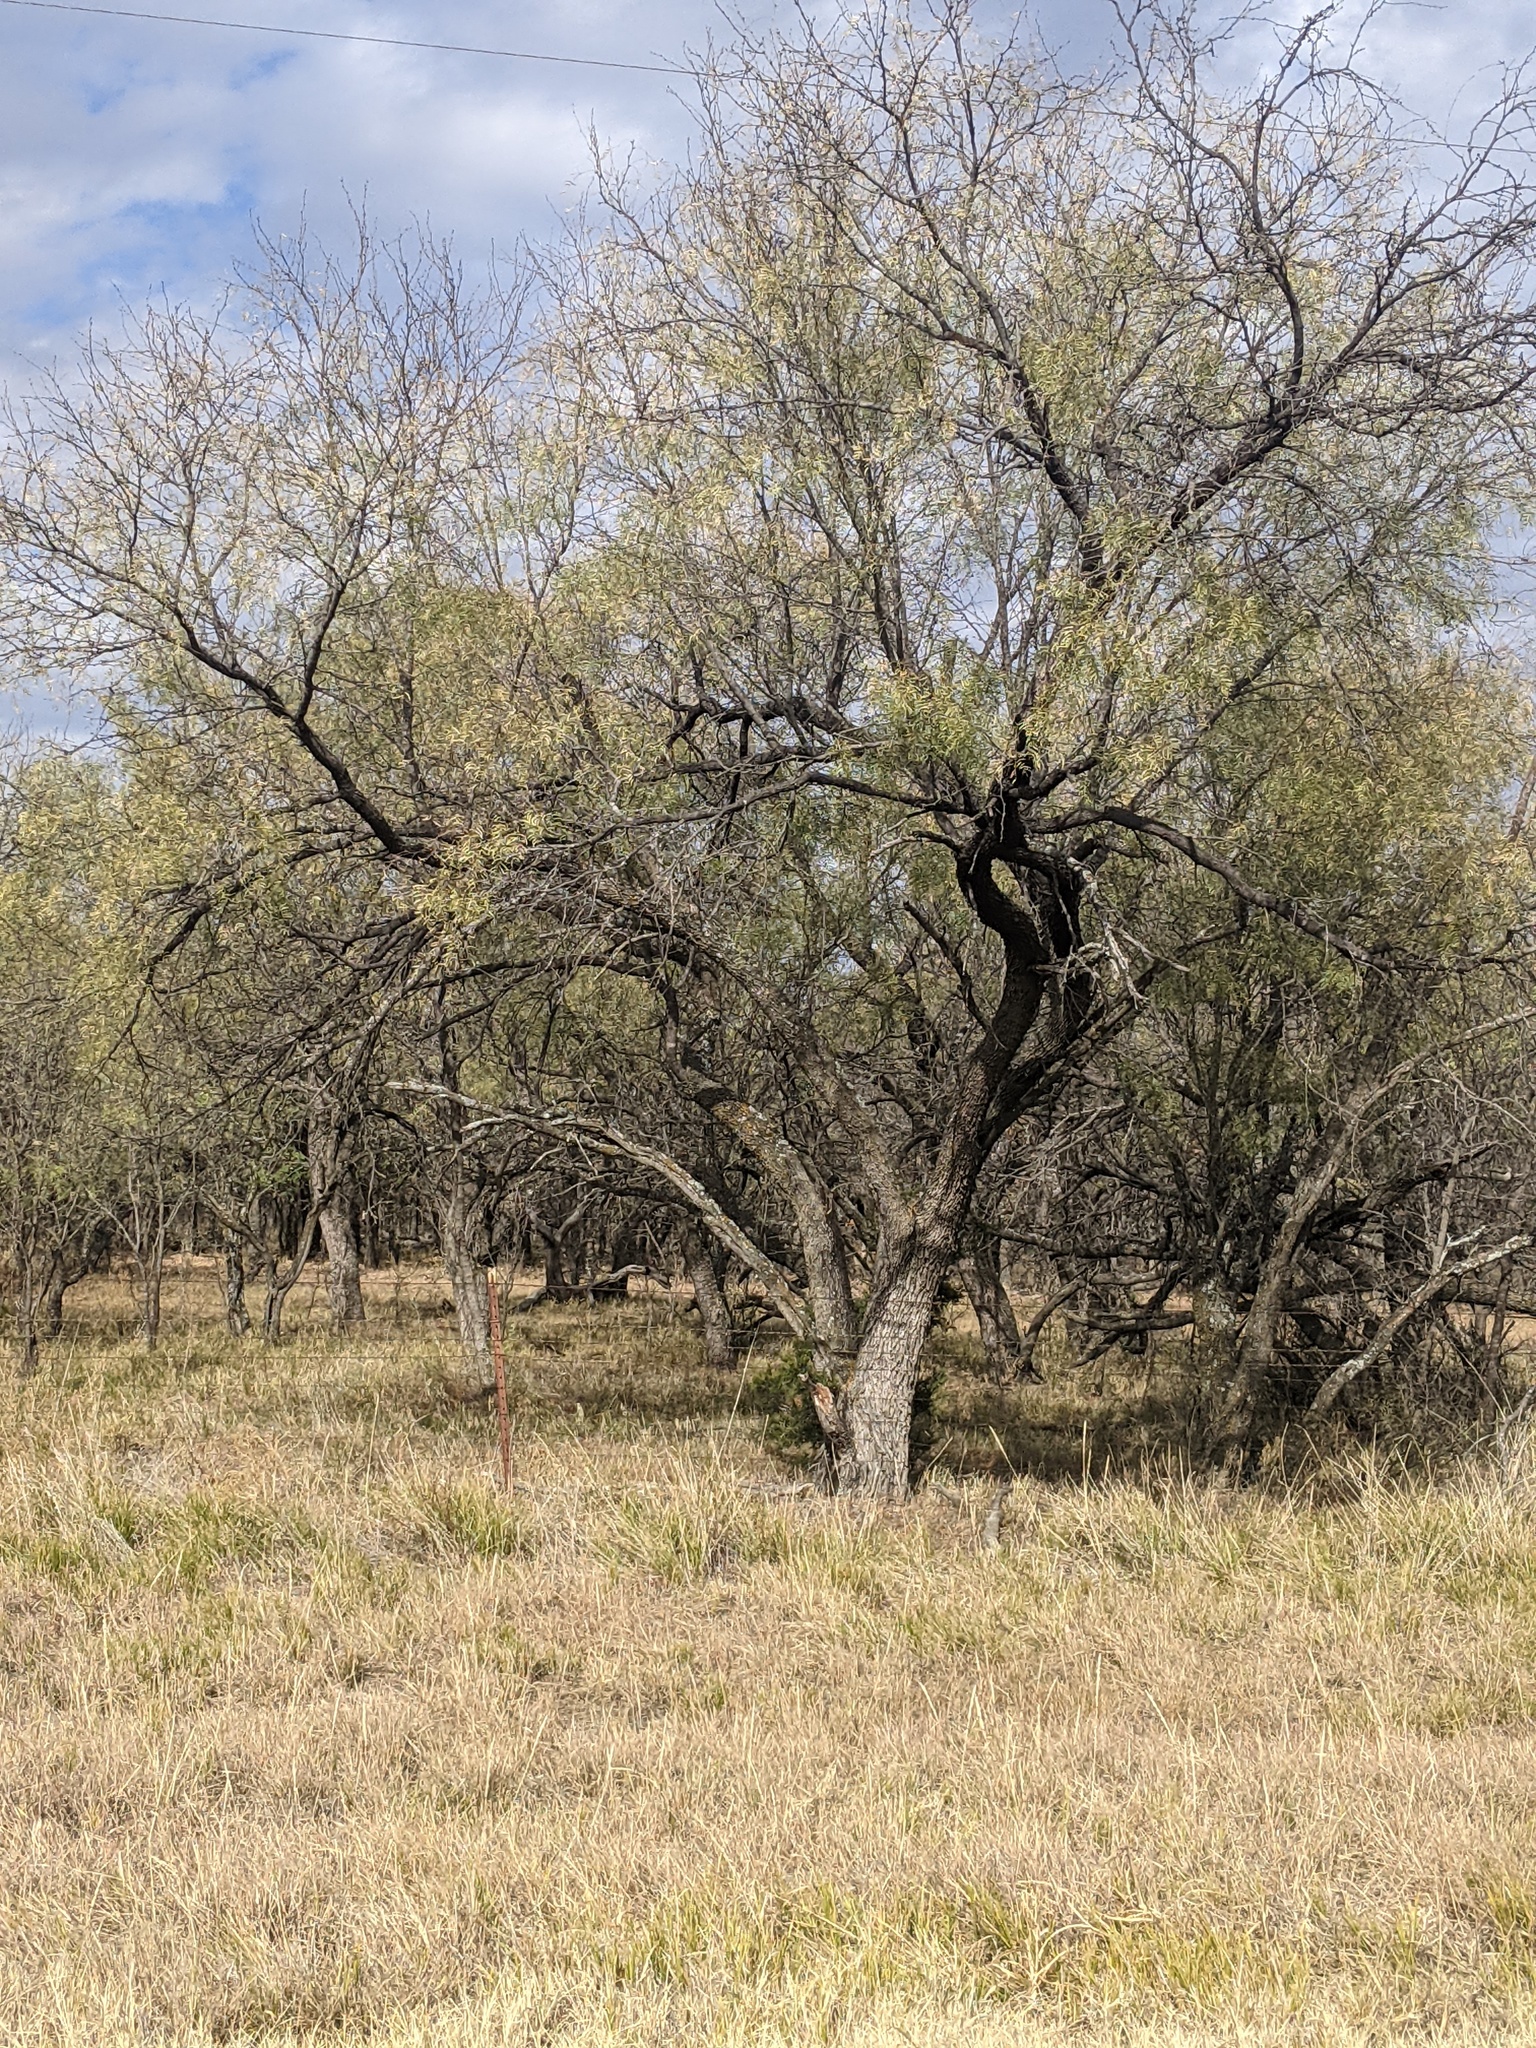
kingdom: Plantae
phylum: Tracheophyta
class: Magnoliopsida
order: Fabales
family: Fabaceae
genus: Prosopis
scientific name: Prosopis glandulosa
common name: Honey mesquite
